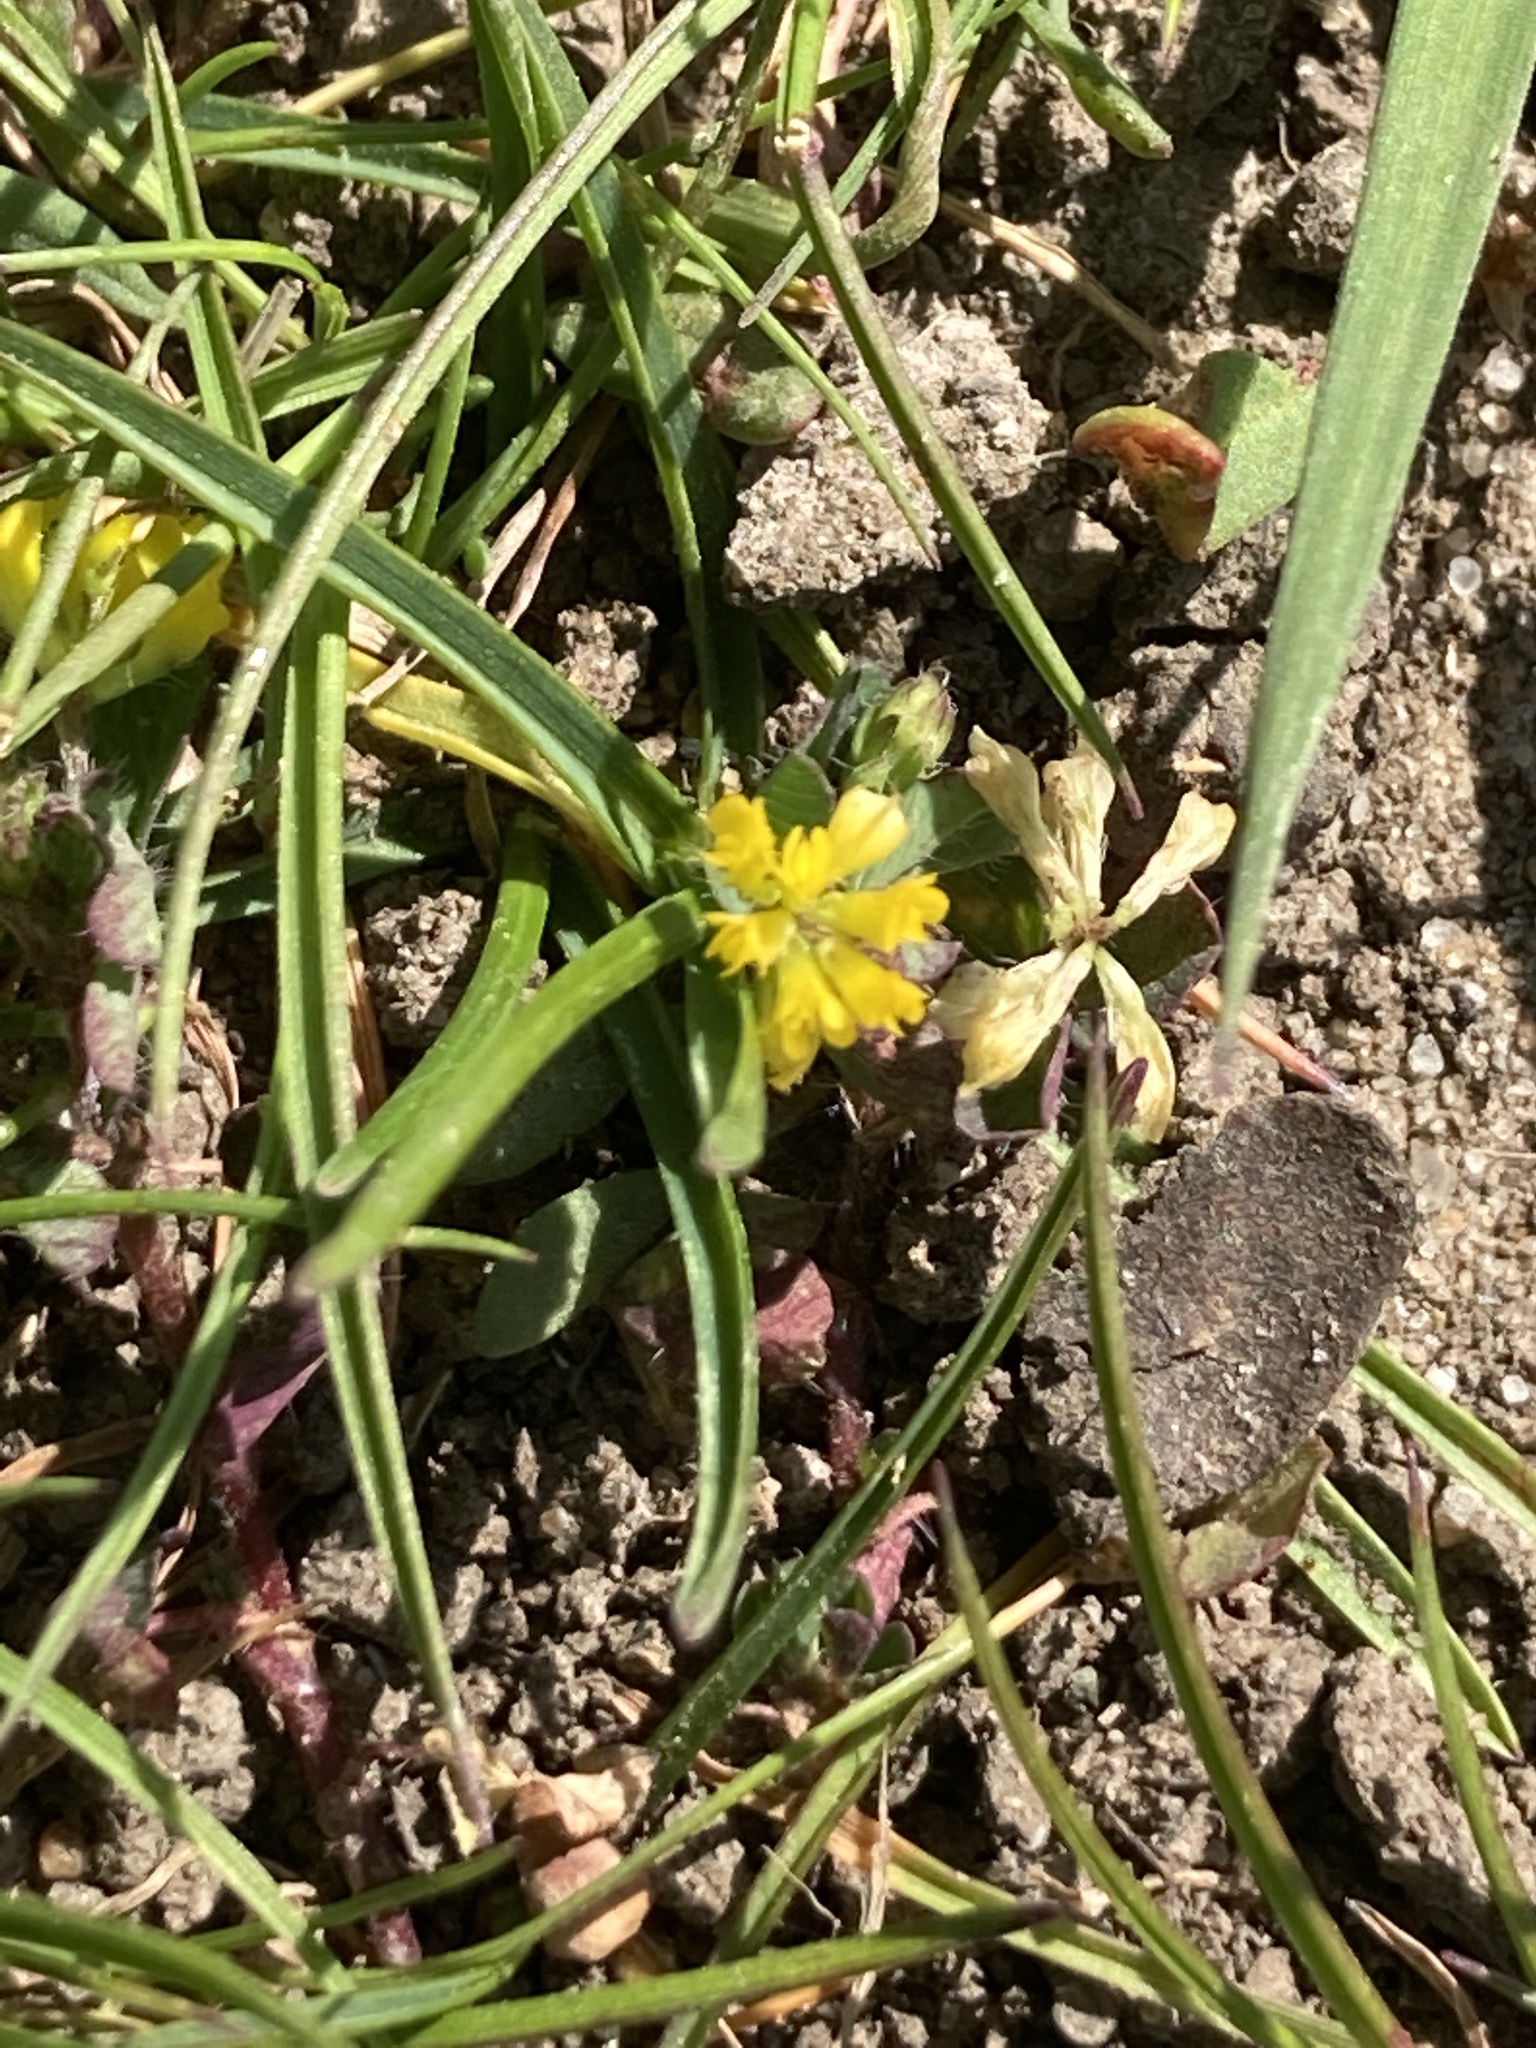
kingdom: Plantae
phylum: Tracheophyta
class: Magnoliopsida
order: Fabales
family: Fabaceae
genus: Trifolium
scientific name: Trifolium dubium
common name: Suckling clover
